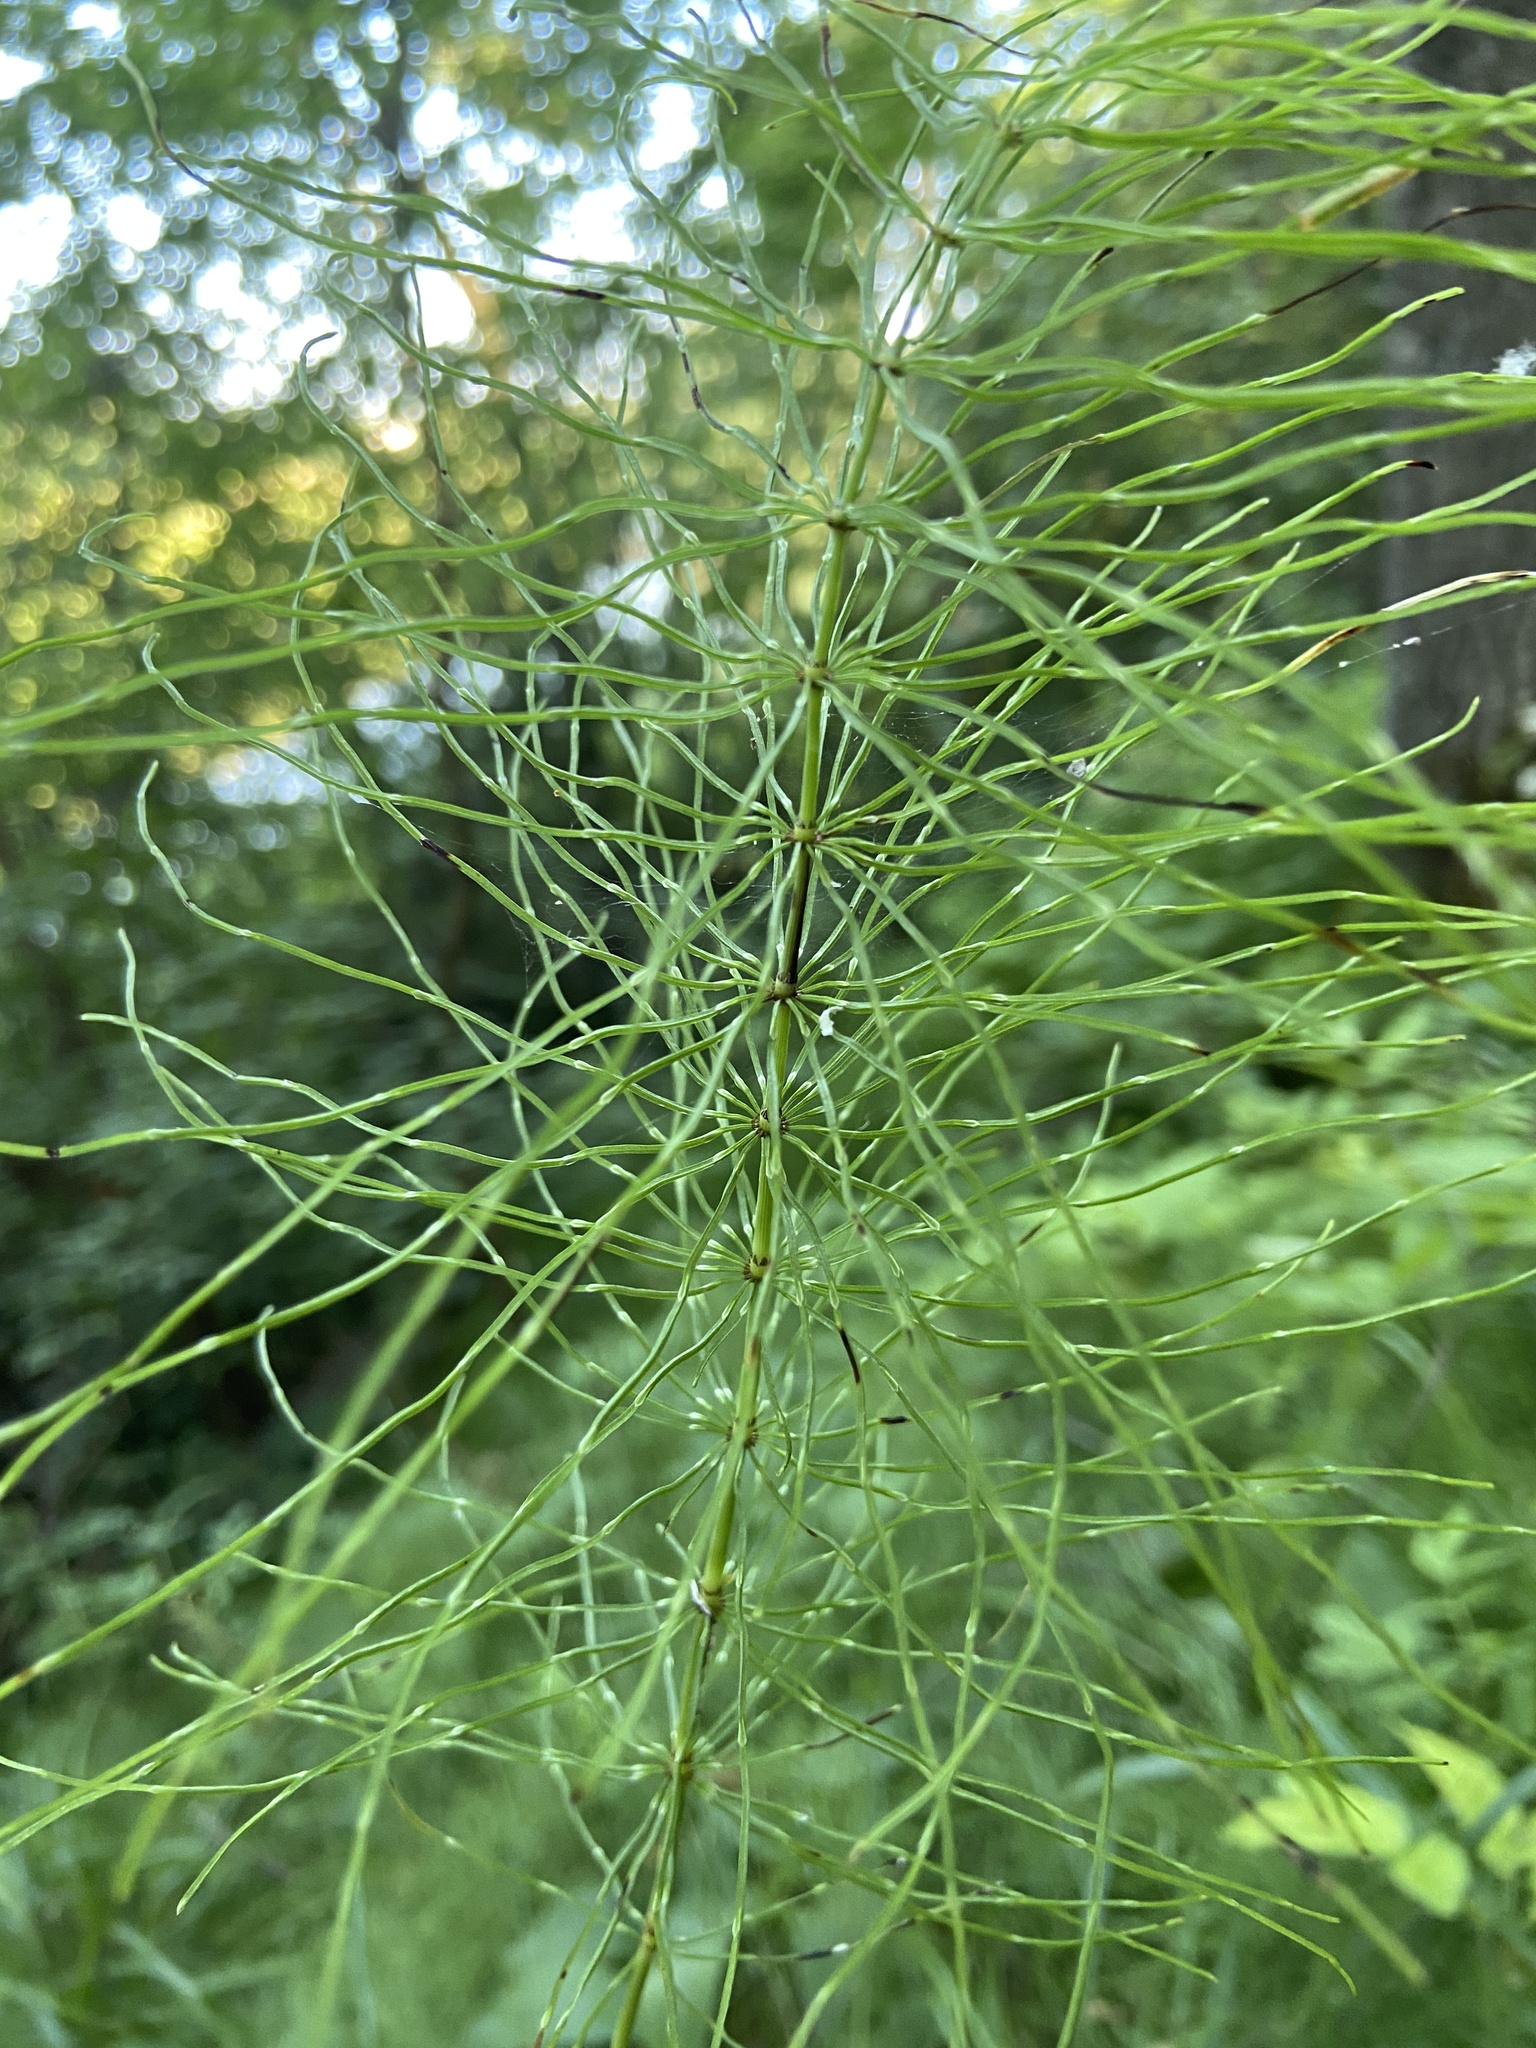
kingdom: Plantae
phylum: Tracheophyta
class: Polypodiopsida
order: Equisetales
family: Equisetaceae
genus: Equisetum
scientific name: Equisetum pratense
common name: Meadow horsetail
